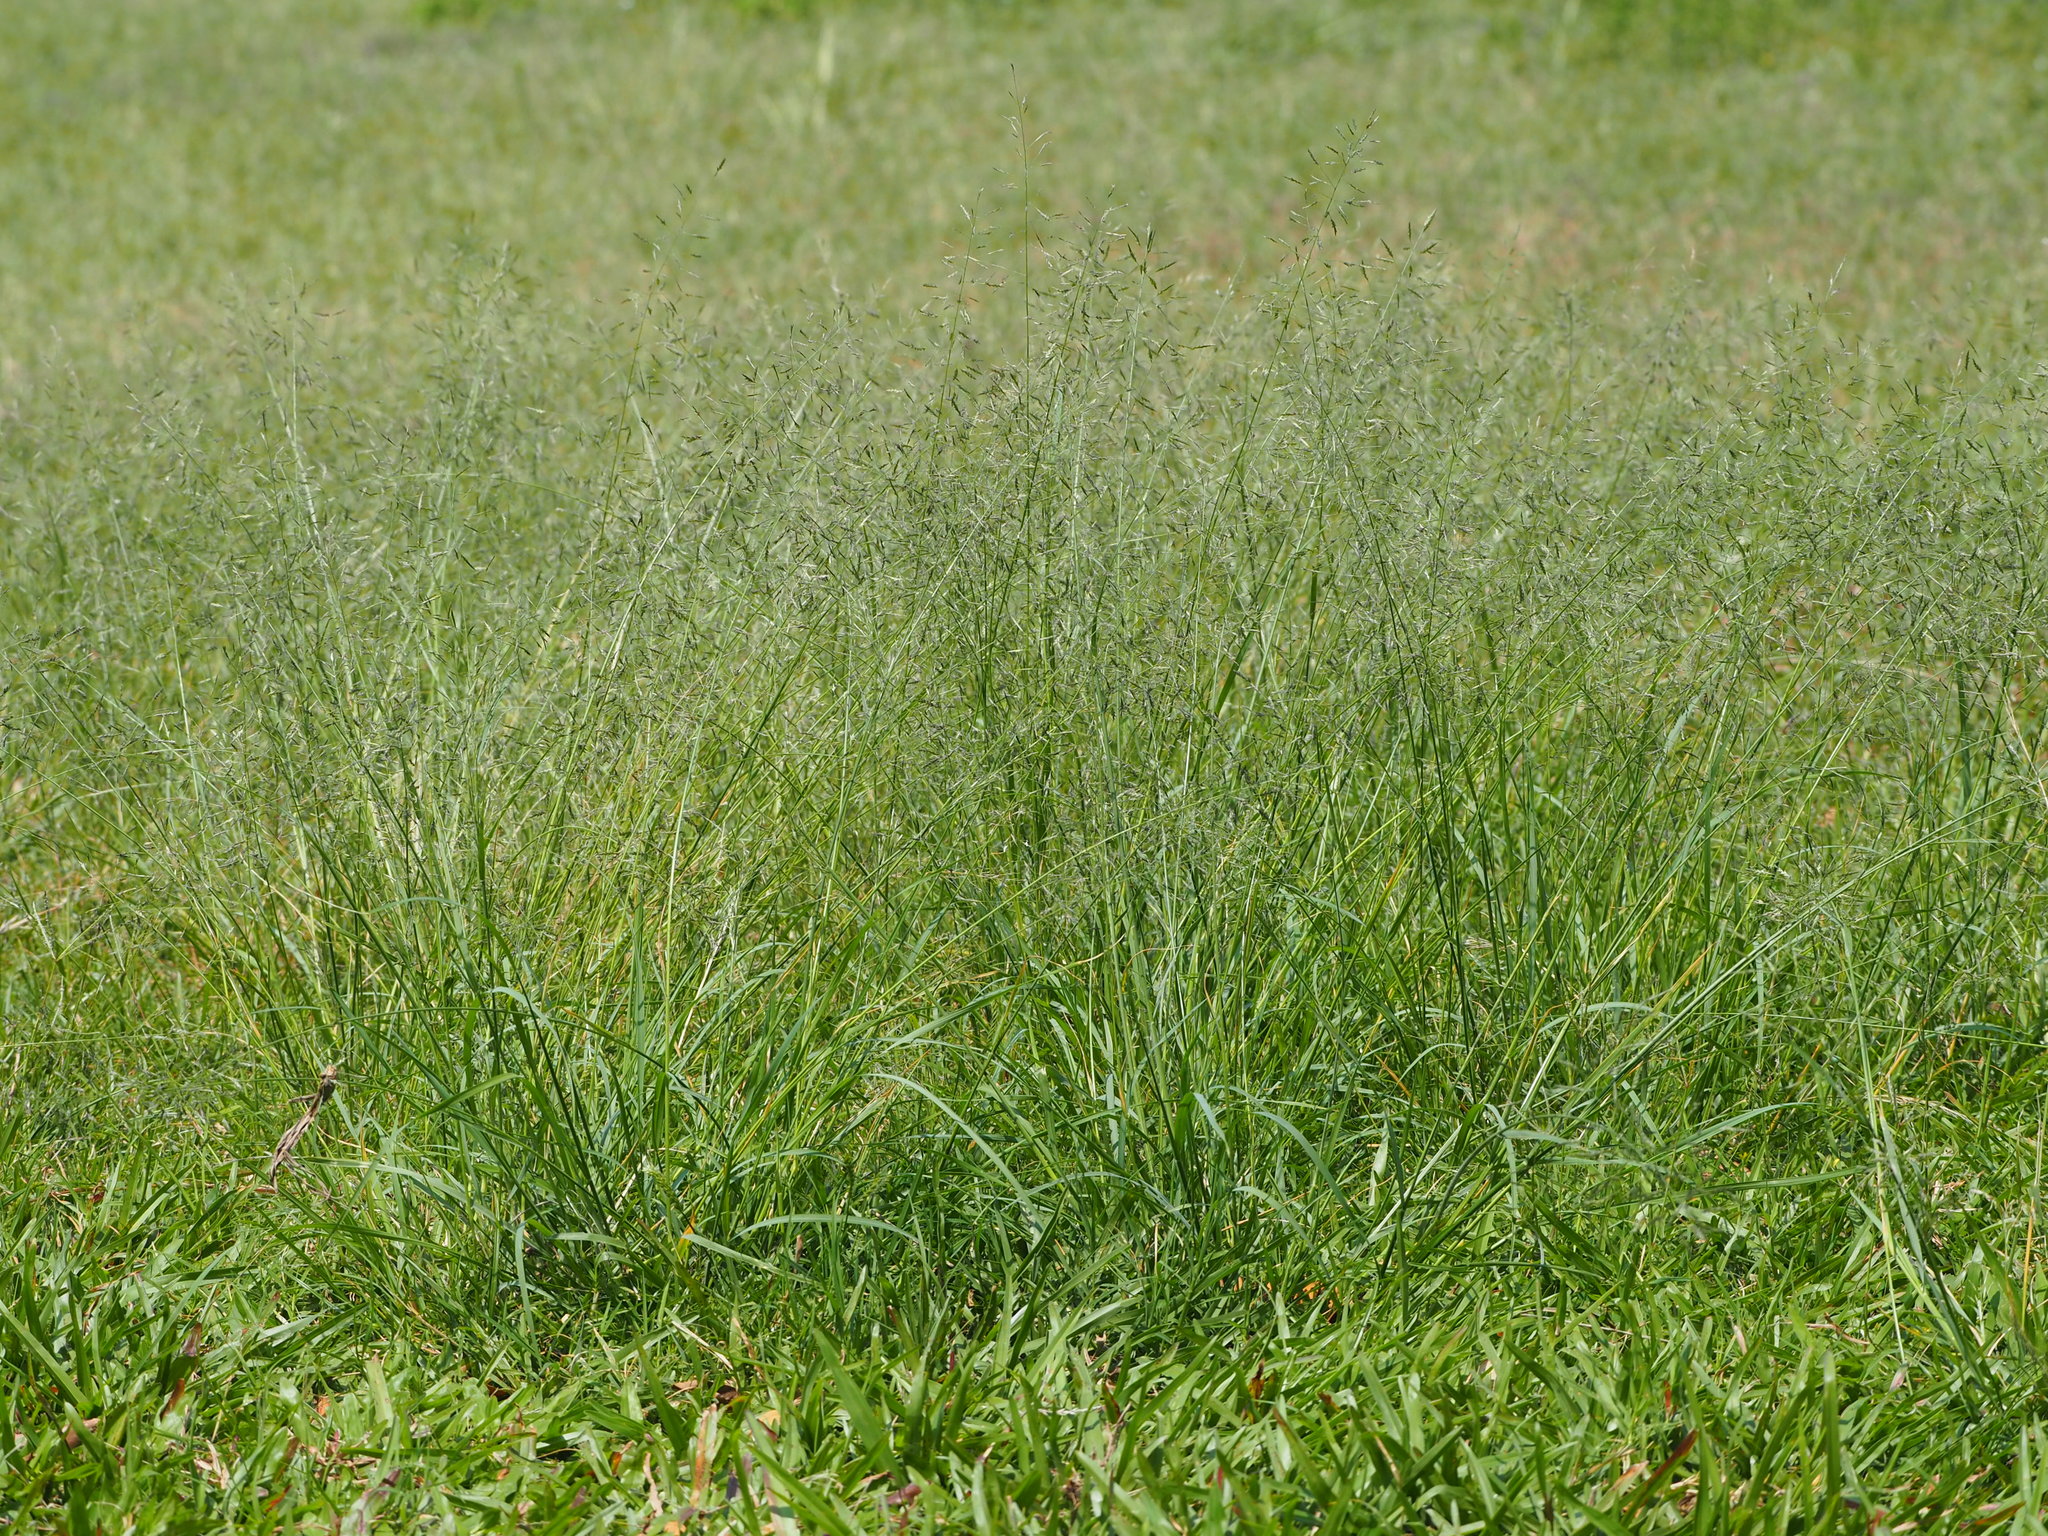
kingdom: Plantae
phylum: Tracheophyta
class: Liliopsida
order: Poales
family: Poaceae
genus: Eragrostis
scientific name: Eragrostis tenuifolia
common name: Elastic grass
